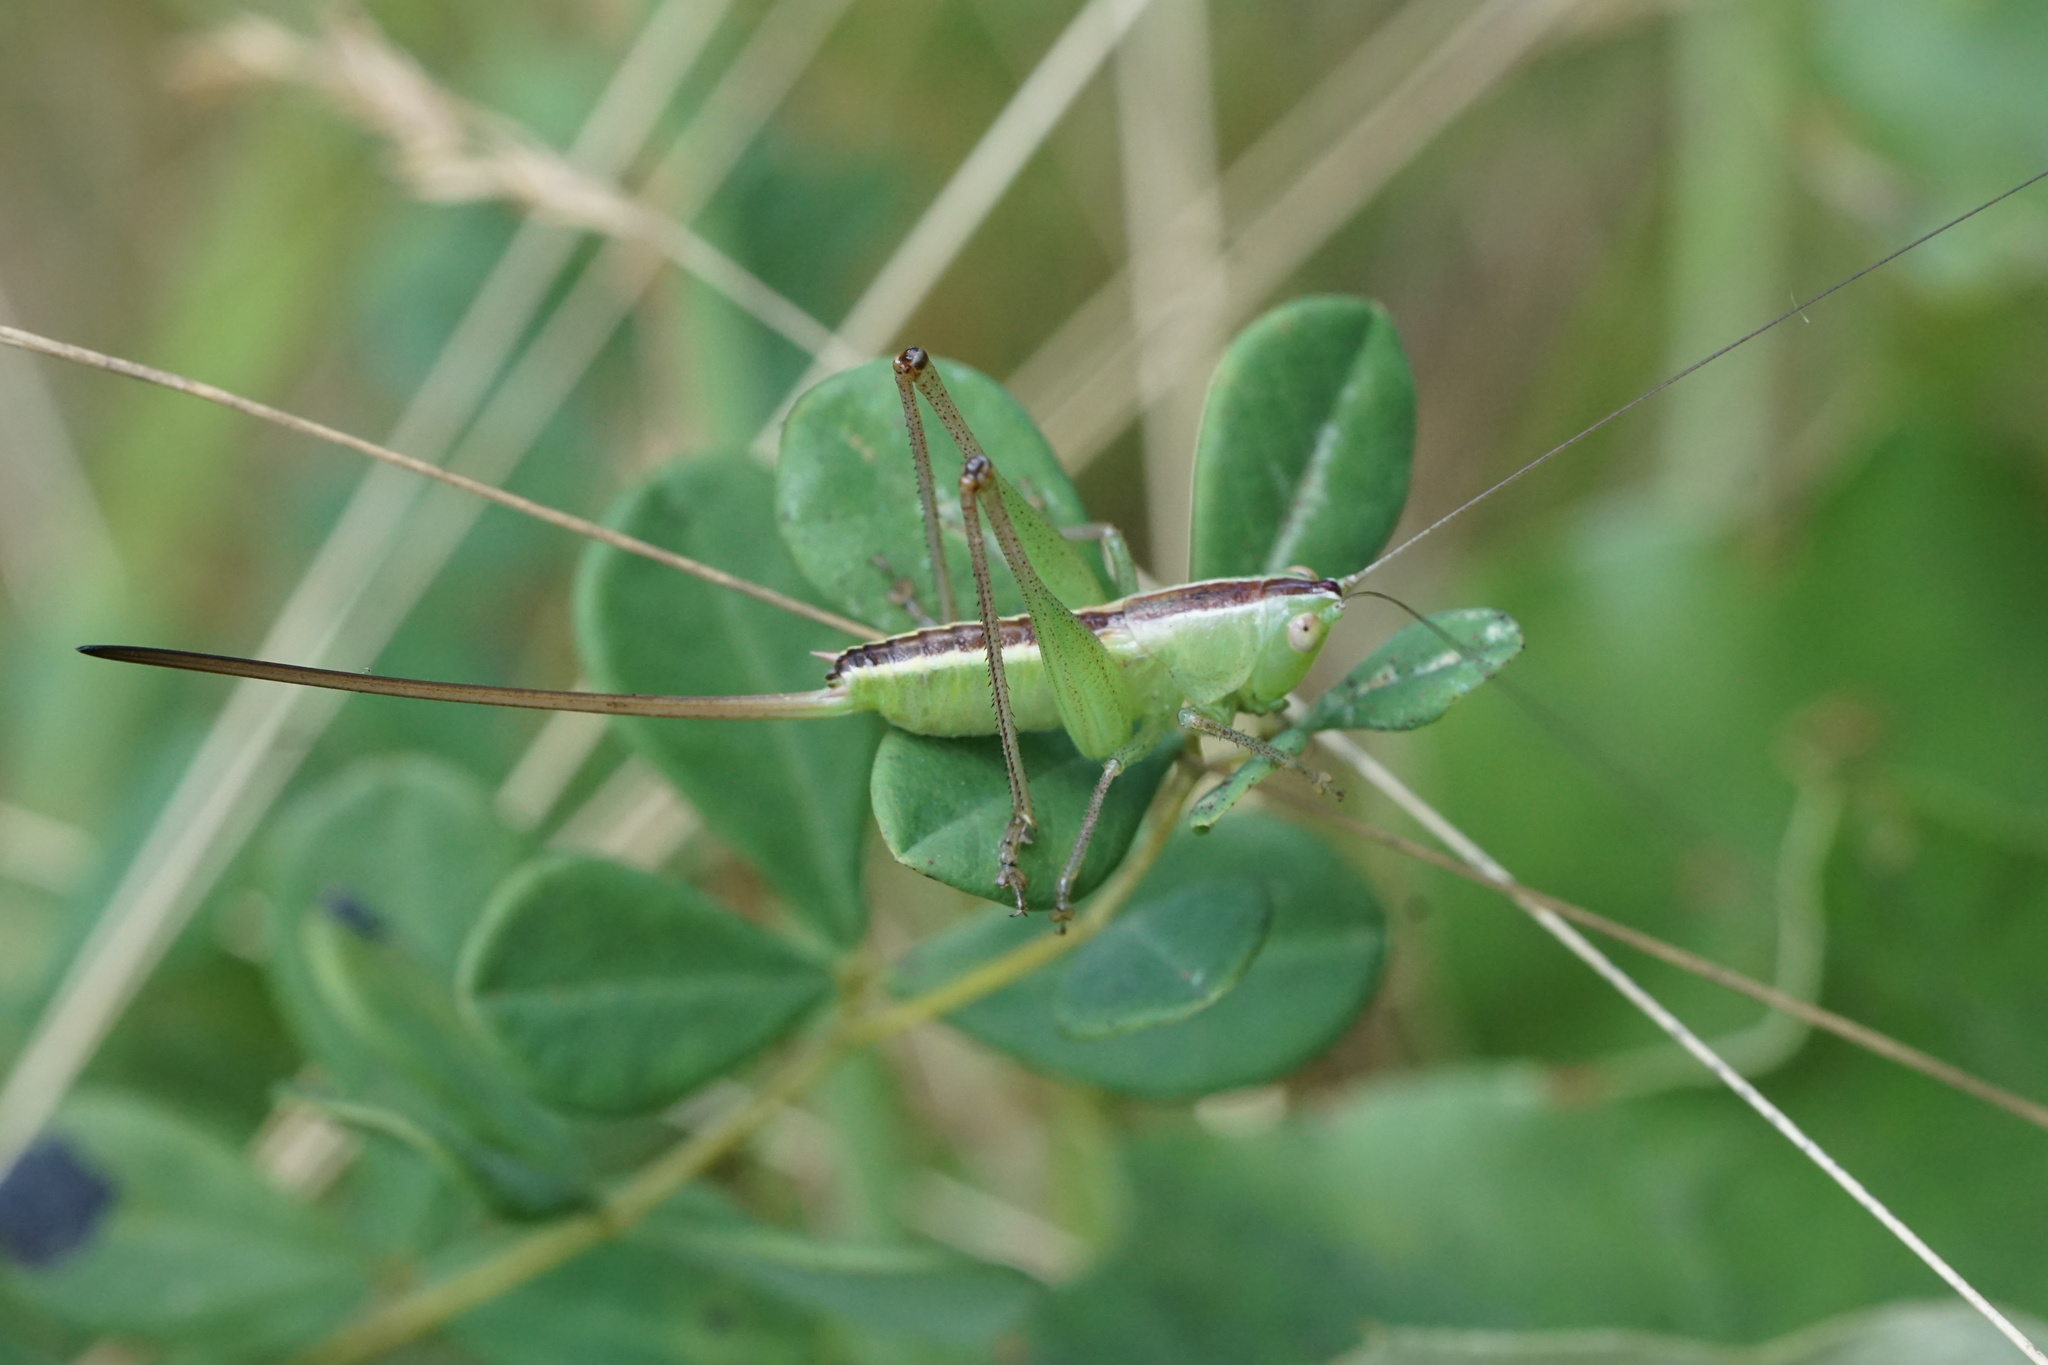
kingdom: Animalia
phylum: Arthropoda
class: Insecta
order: Orthoptera
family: Tettigoniidae
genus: Conocephalus
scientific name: Conocephalus strictus
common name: Straight-lanced katydid
